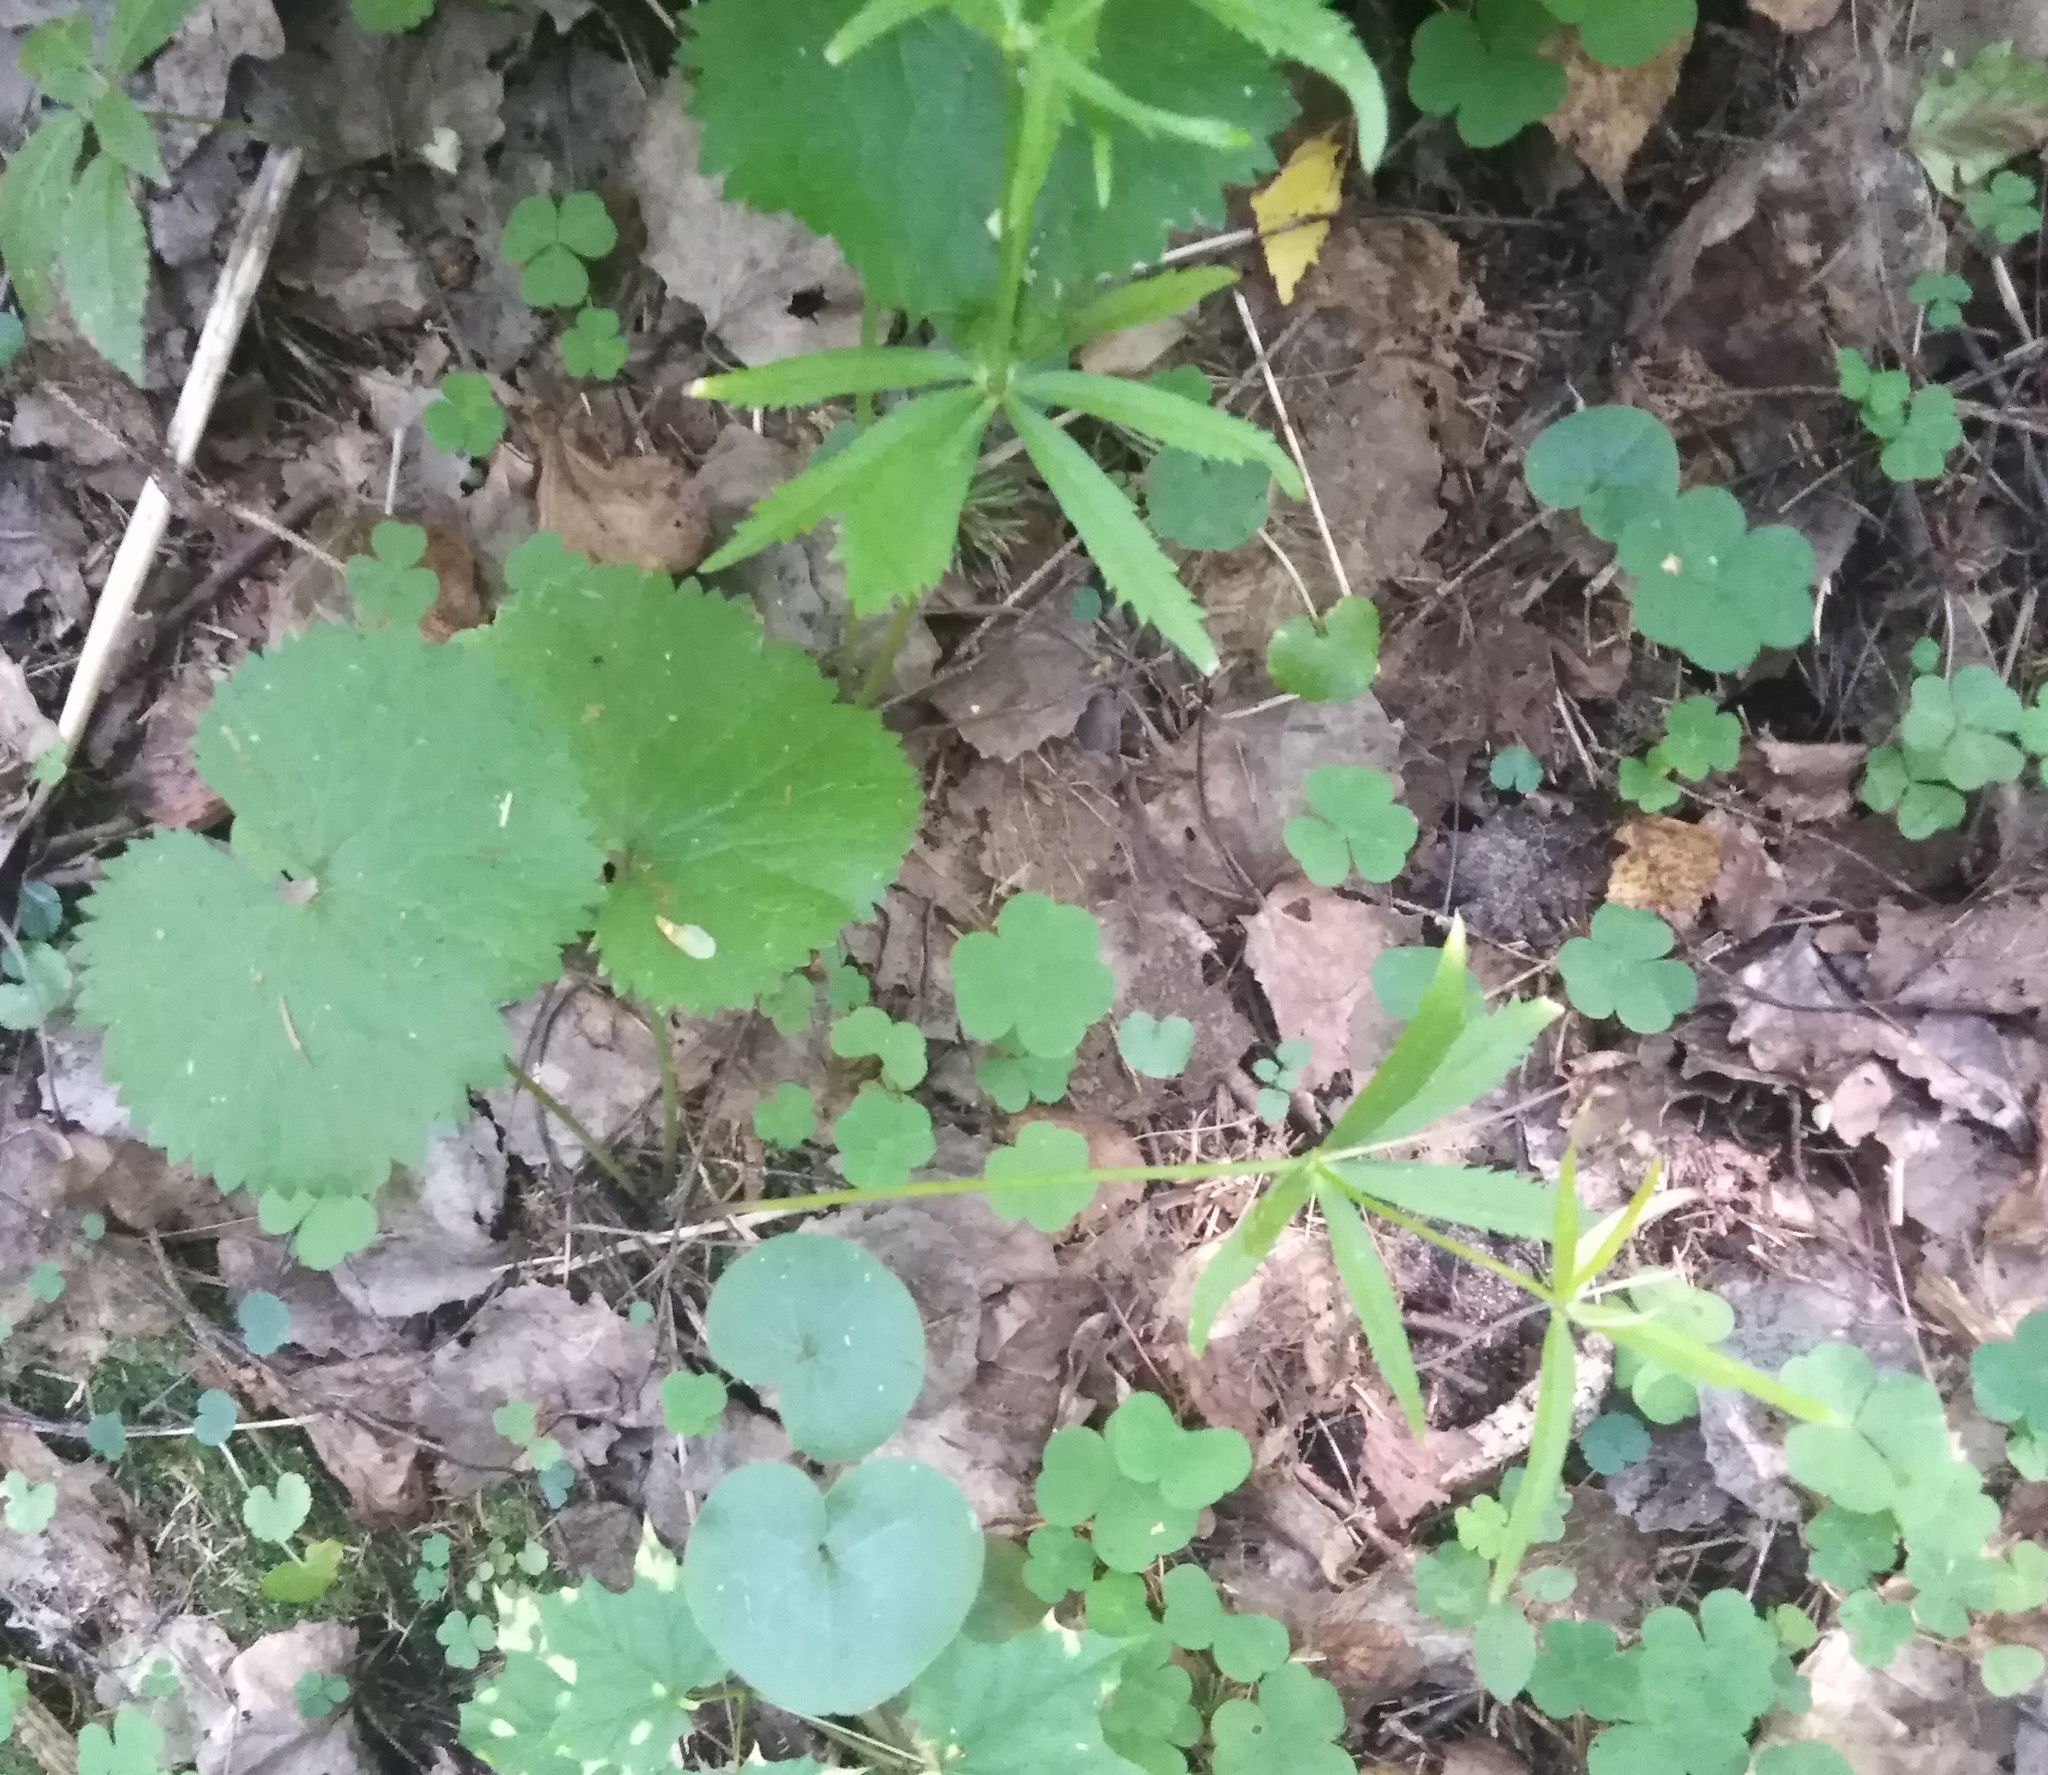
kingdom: Plantae
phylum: Tracheophyta
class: Magnoliopsida
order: Ranunculales
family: Ranunculaceae
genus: Ranunculus
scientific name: Ranunculus cassubicus
